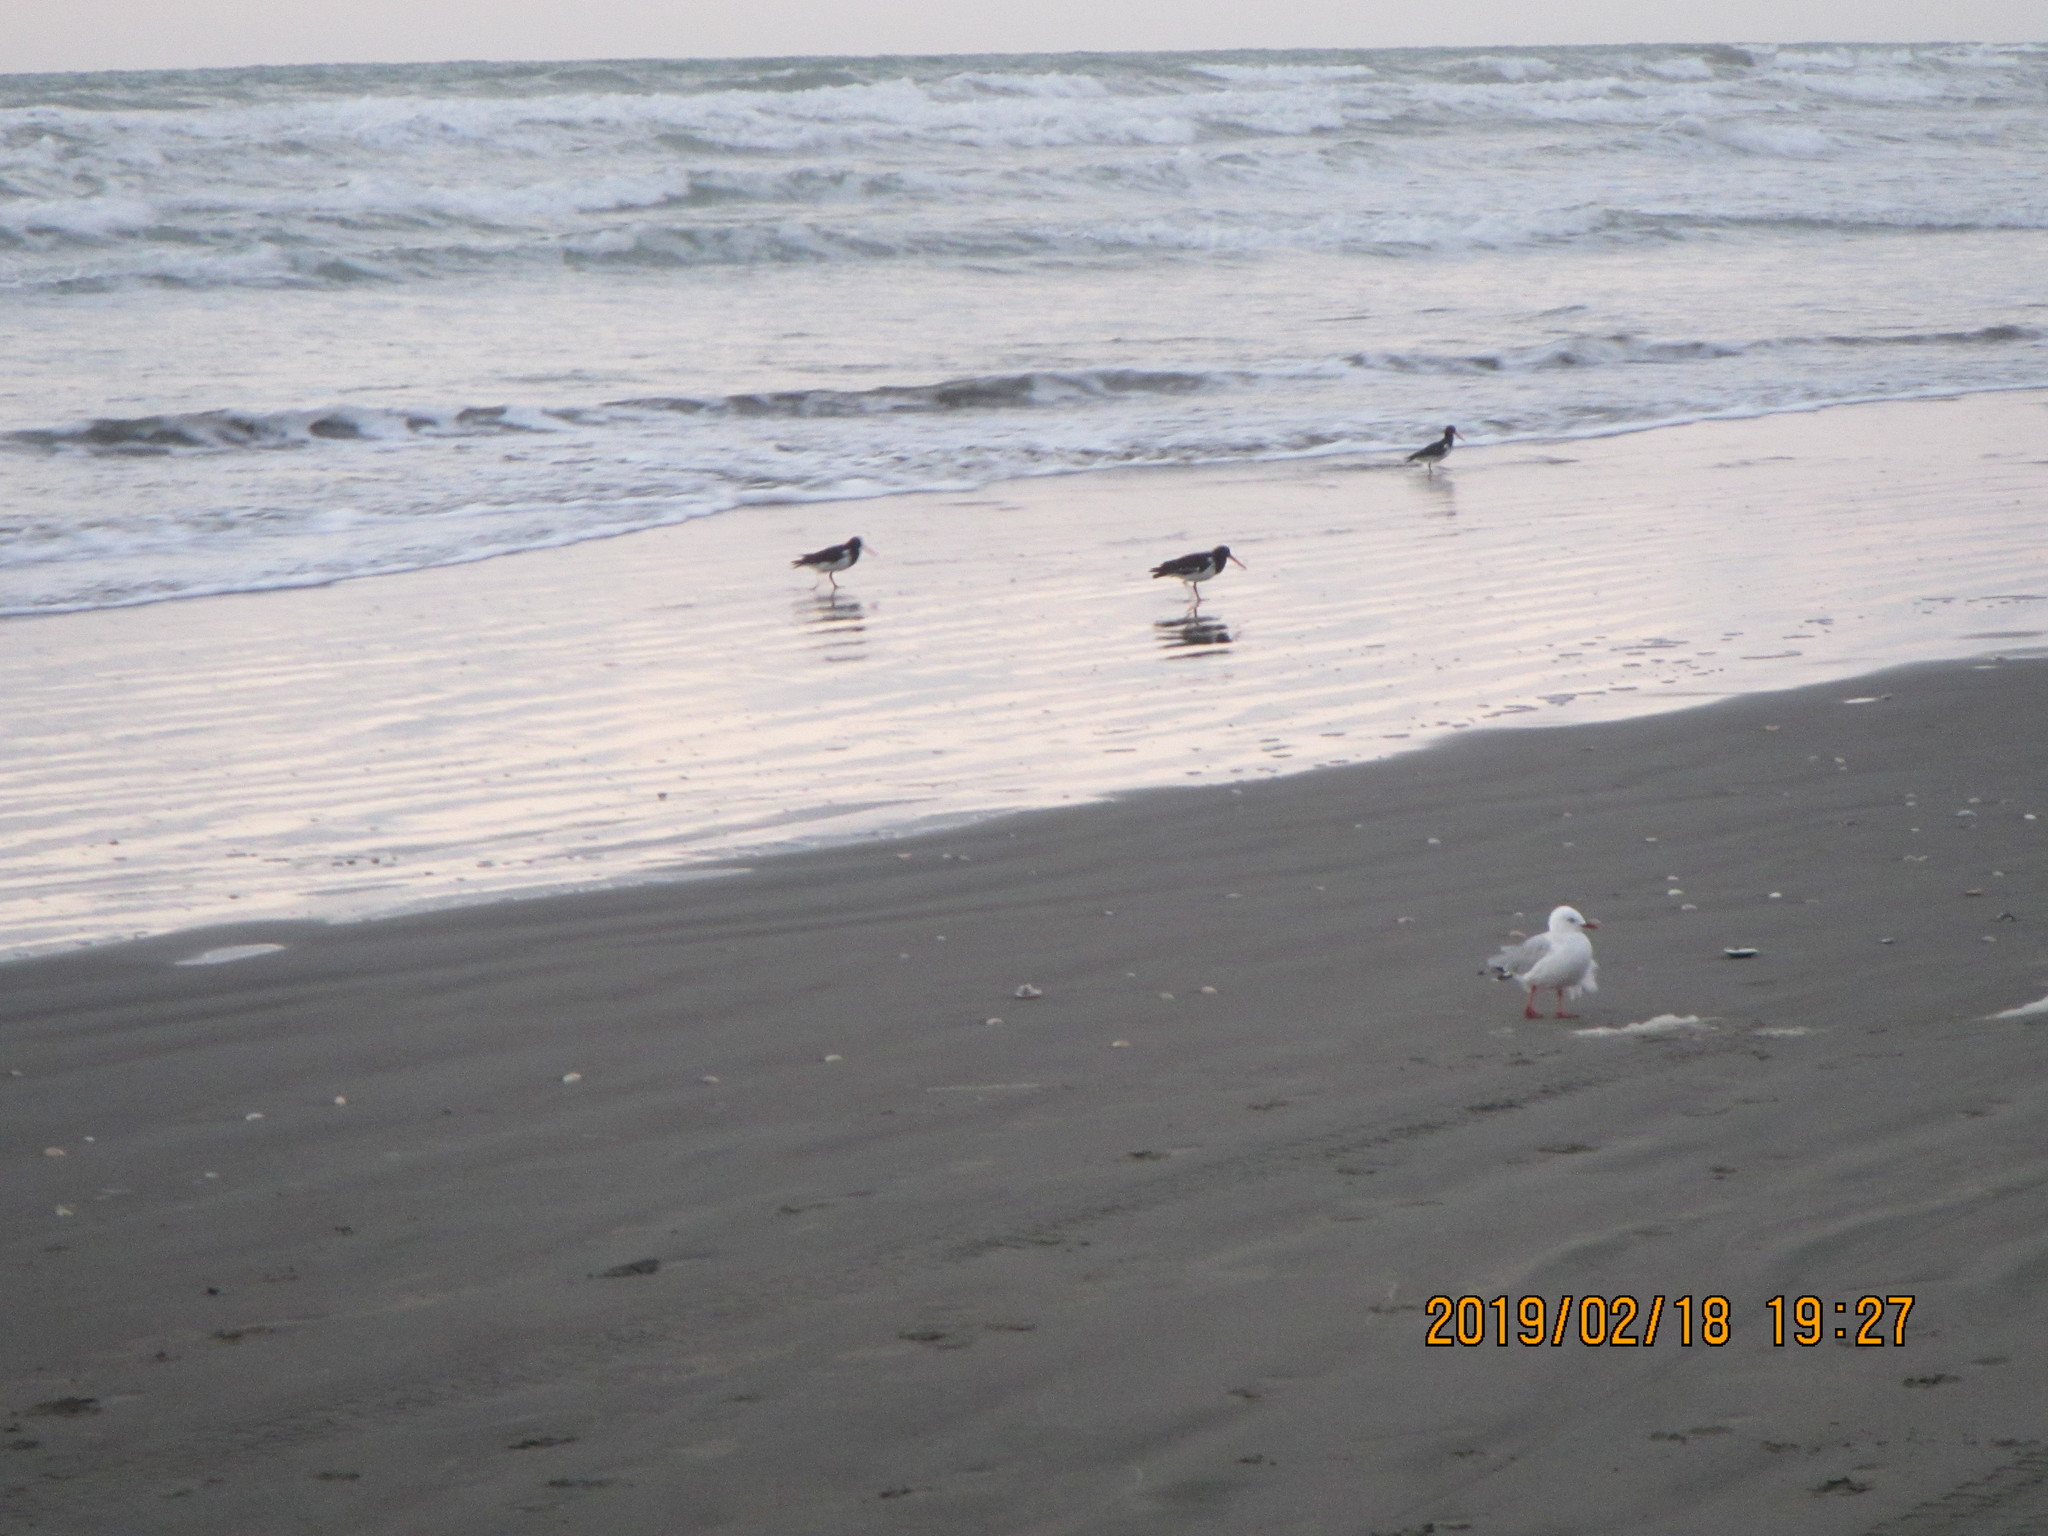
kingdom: Animalia
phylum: Chordata
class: Aves
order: Charadriiformes
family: Haematopodidae
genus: Haematopus
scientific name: Haematopus finschi
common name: South island oystercatcher
